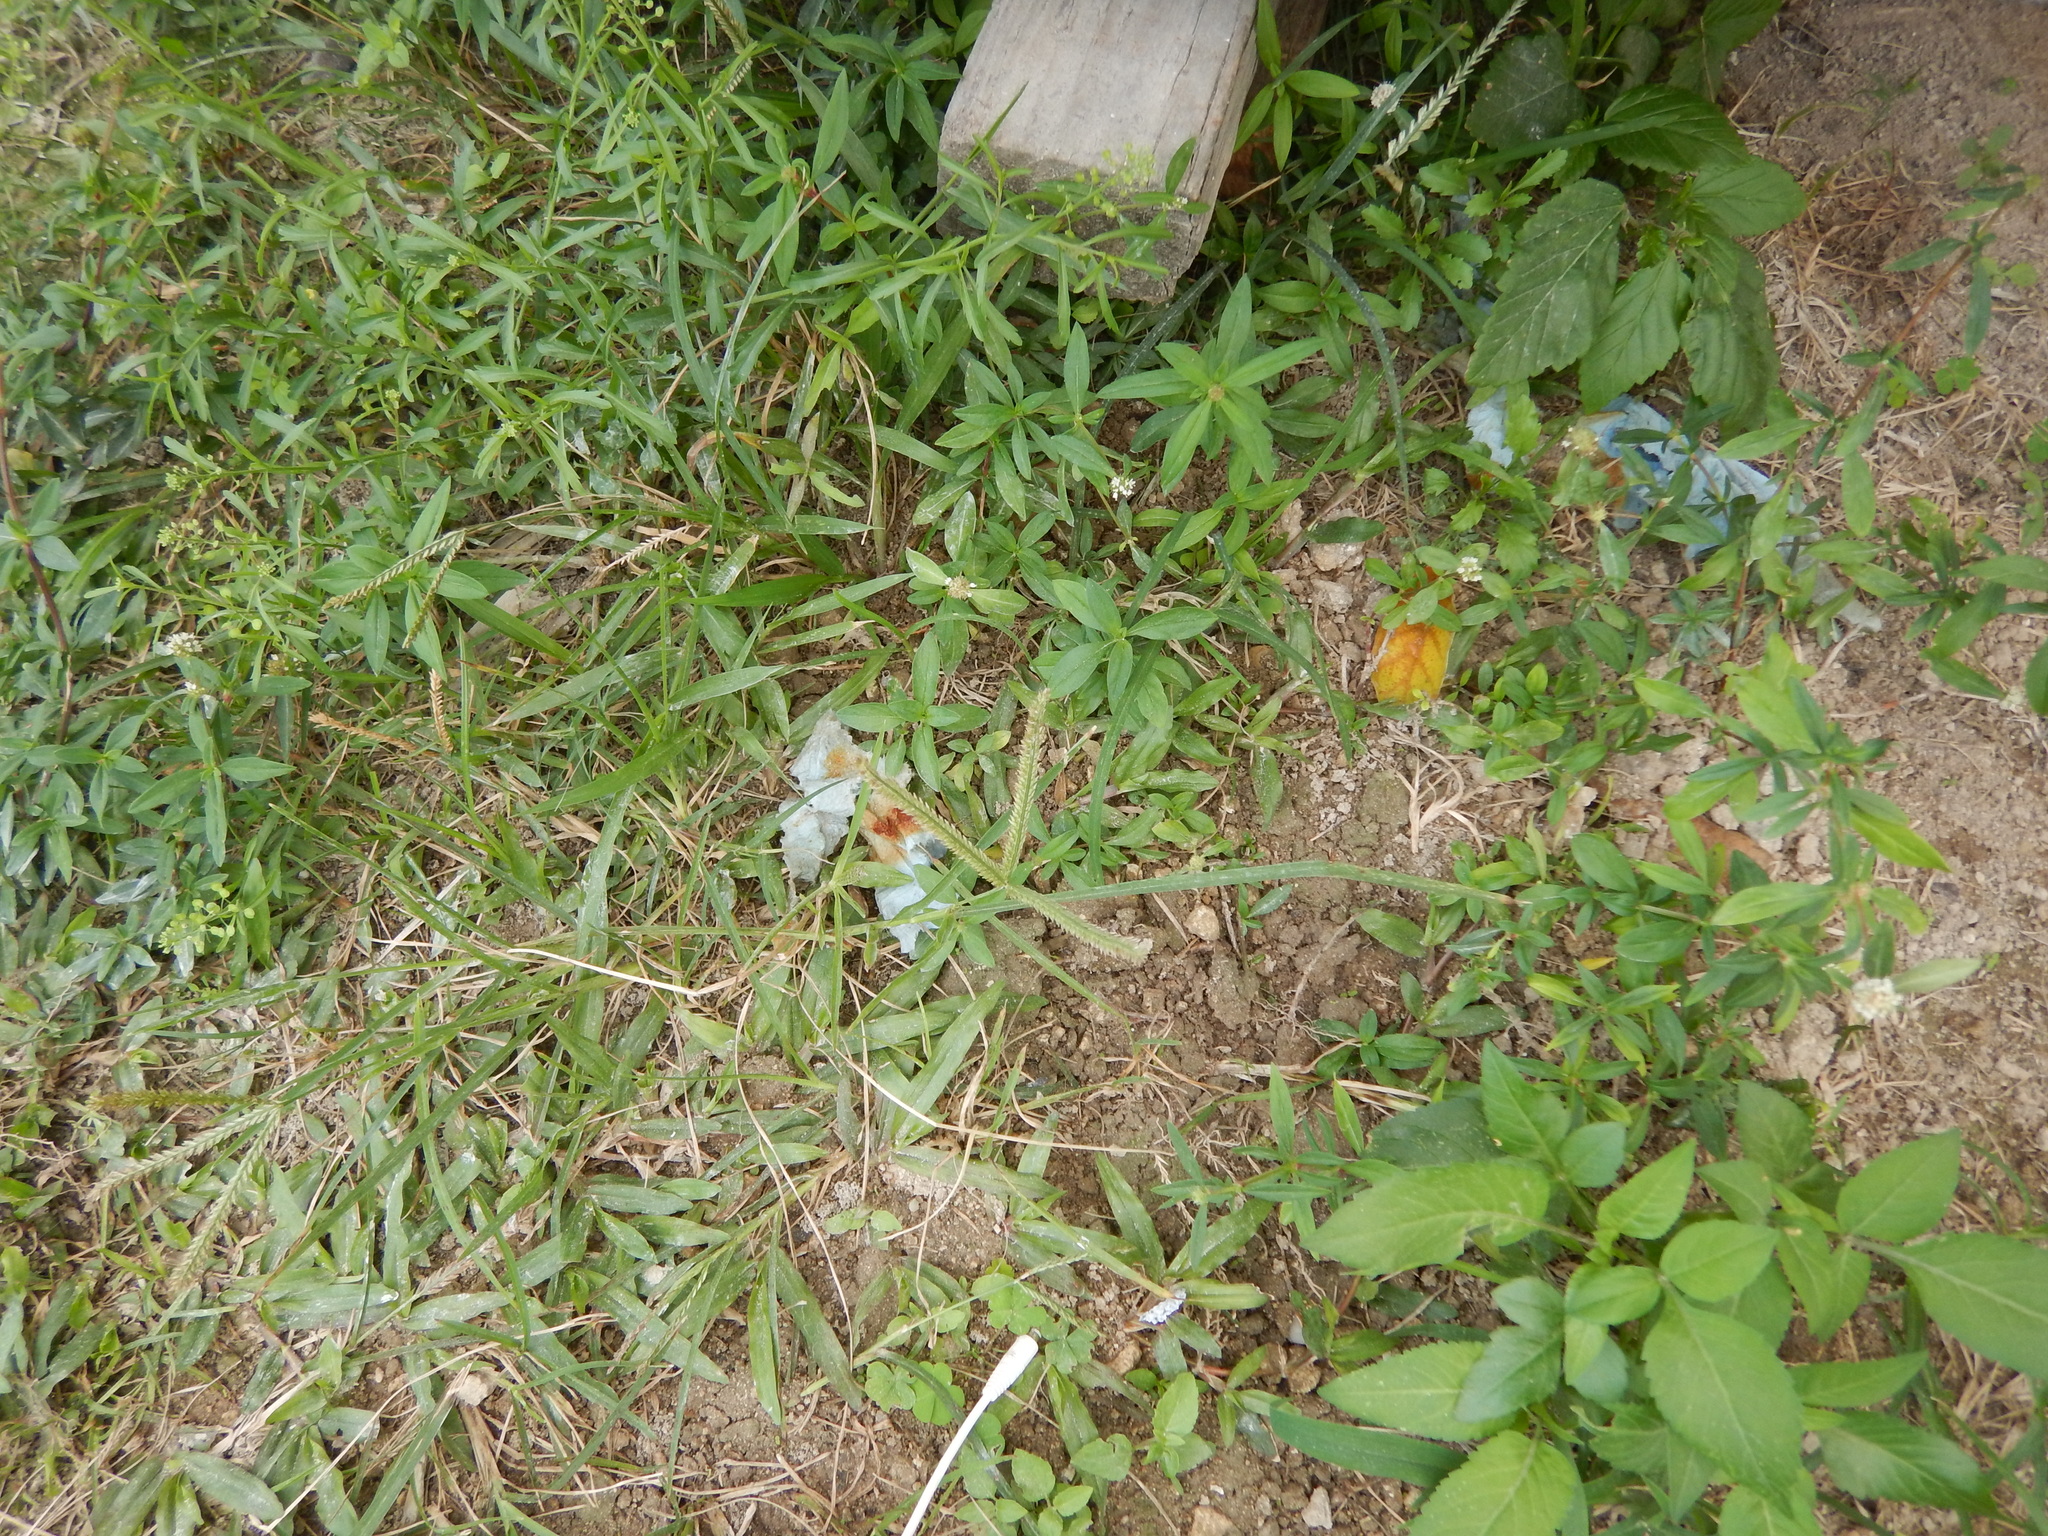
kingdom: Plantae
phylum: Tracheophyta
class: Liliopsida
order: Poales
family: Poaceae
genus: Eleusine
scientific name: Eleusine indica
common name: Yard-grass
